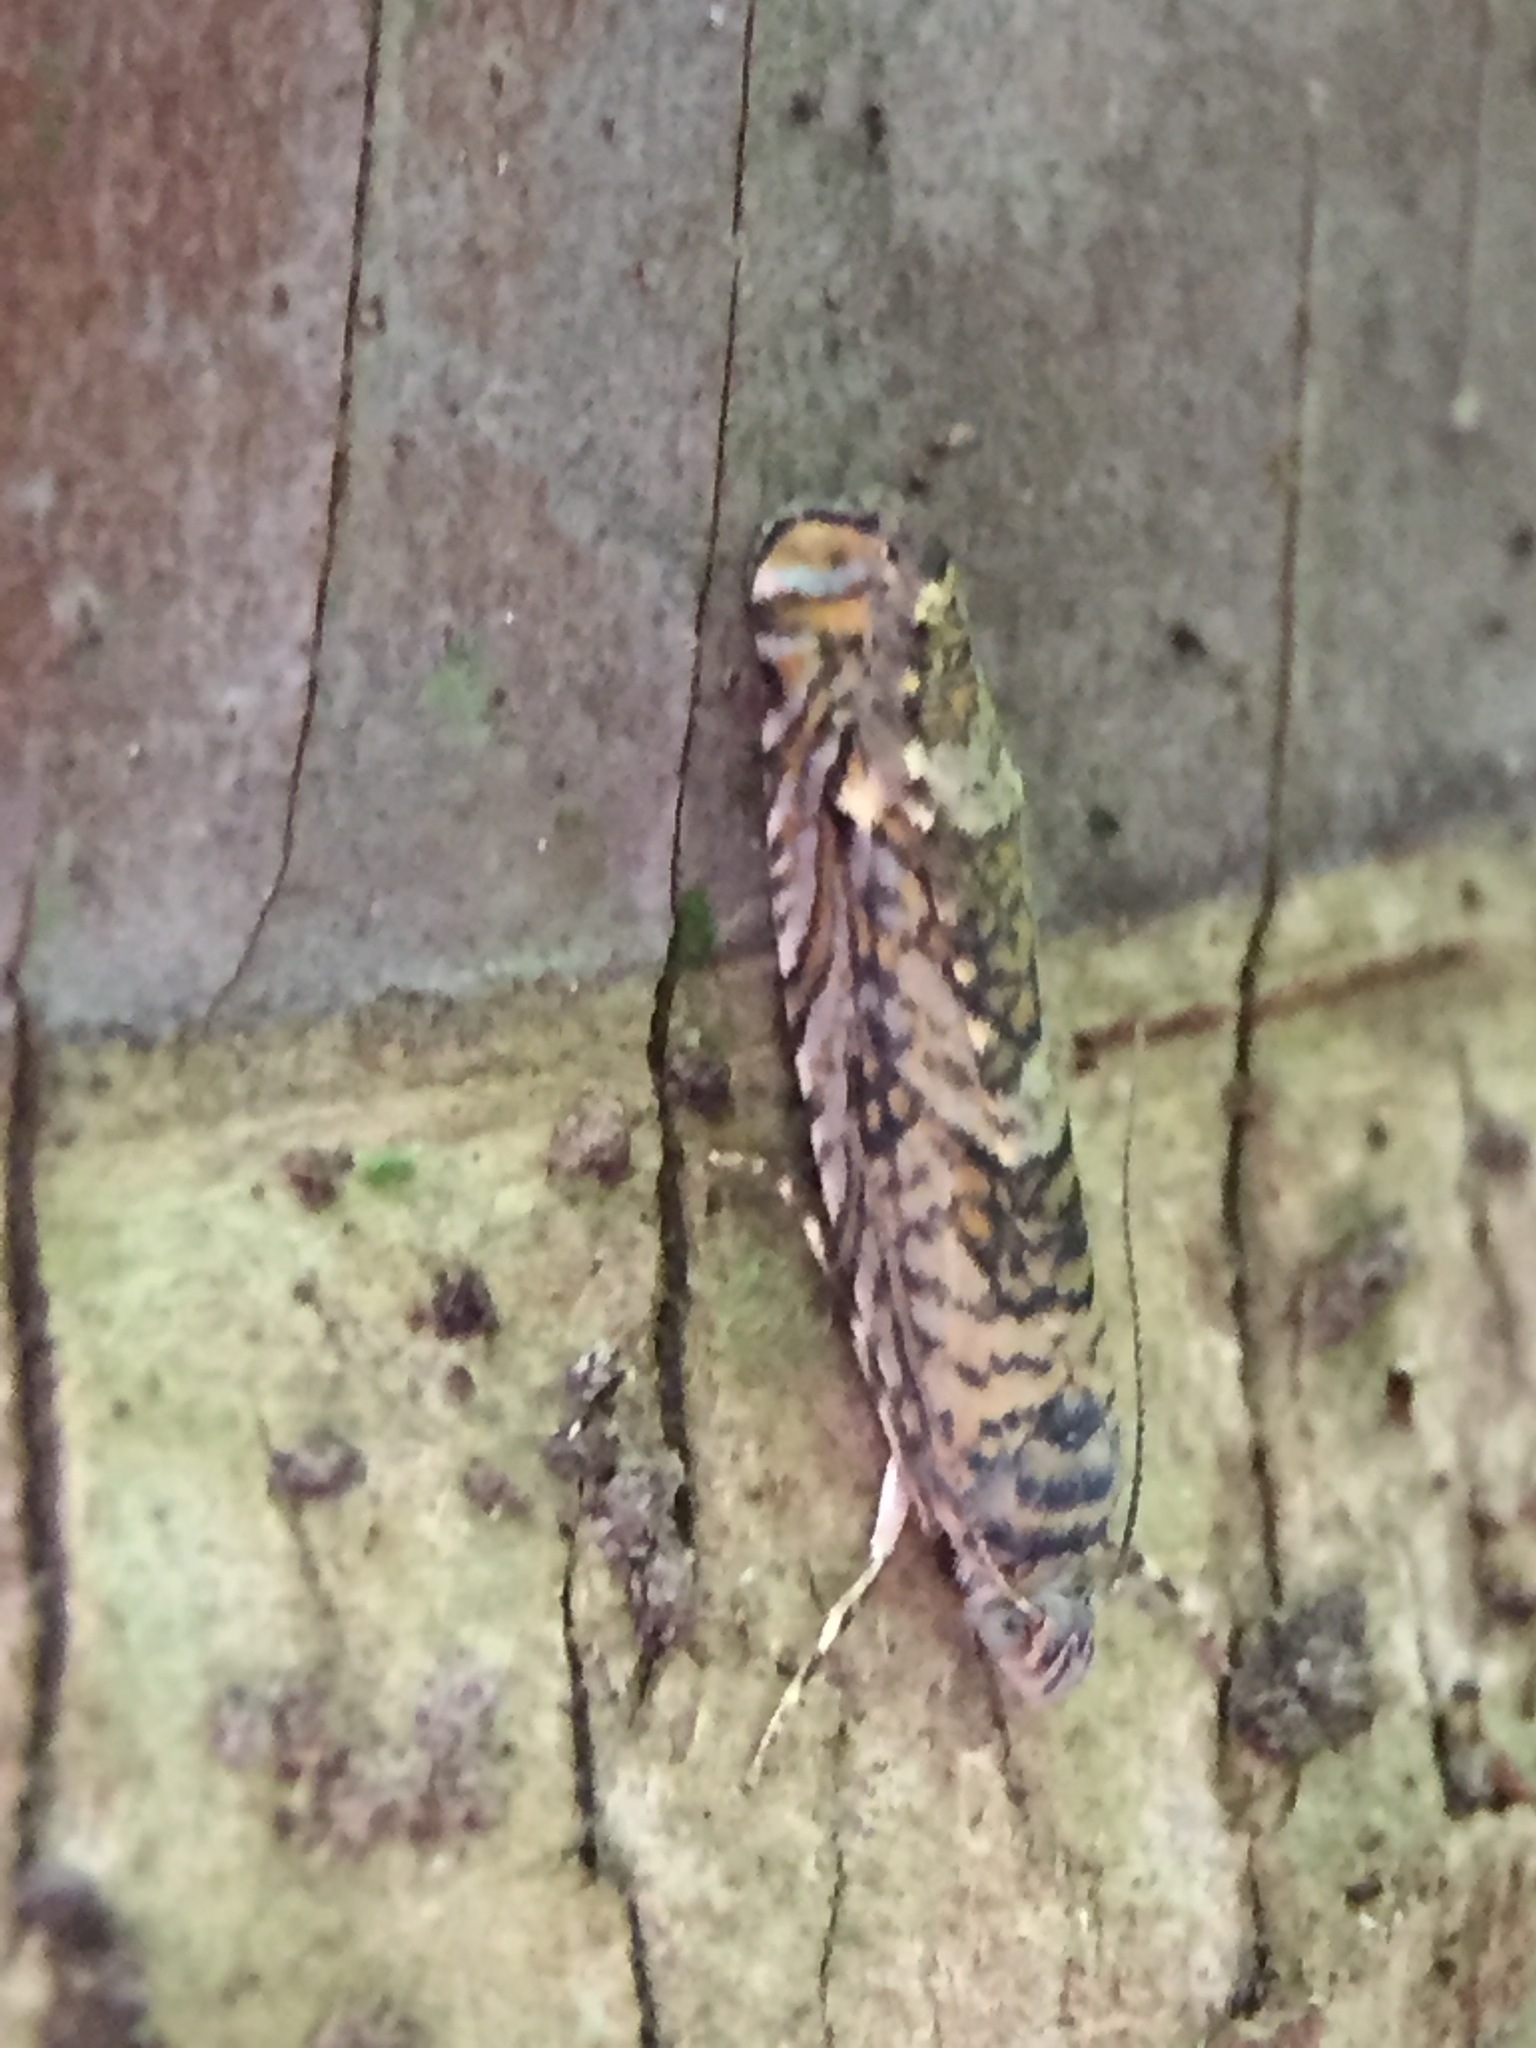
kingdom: Animalia
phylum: Arthropoda
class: Insecta
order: Lepidoptera
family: Plutellidae
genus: Doxophyrtis
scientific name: Doxophyrtis hydrocosma
